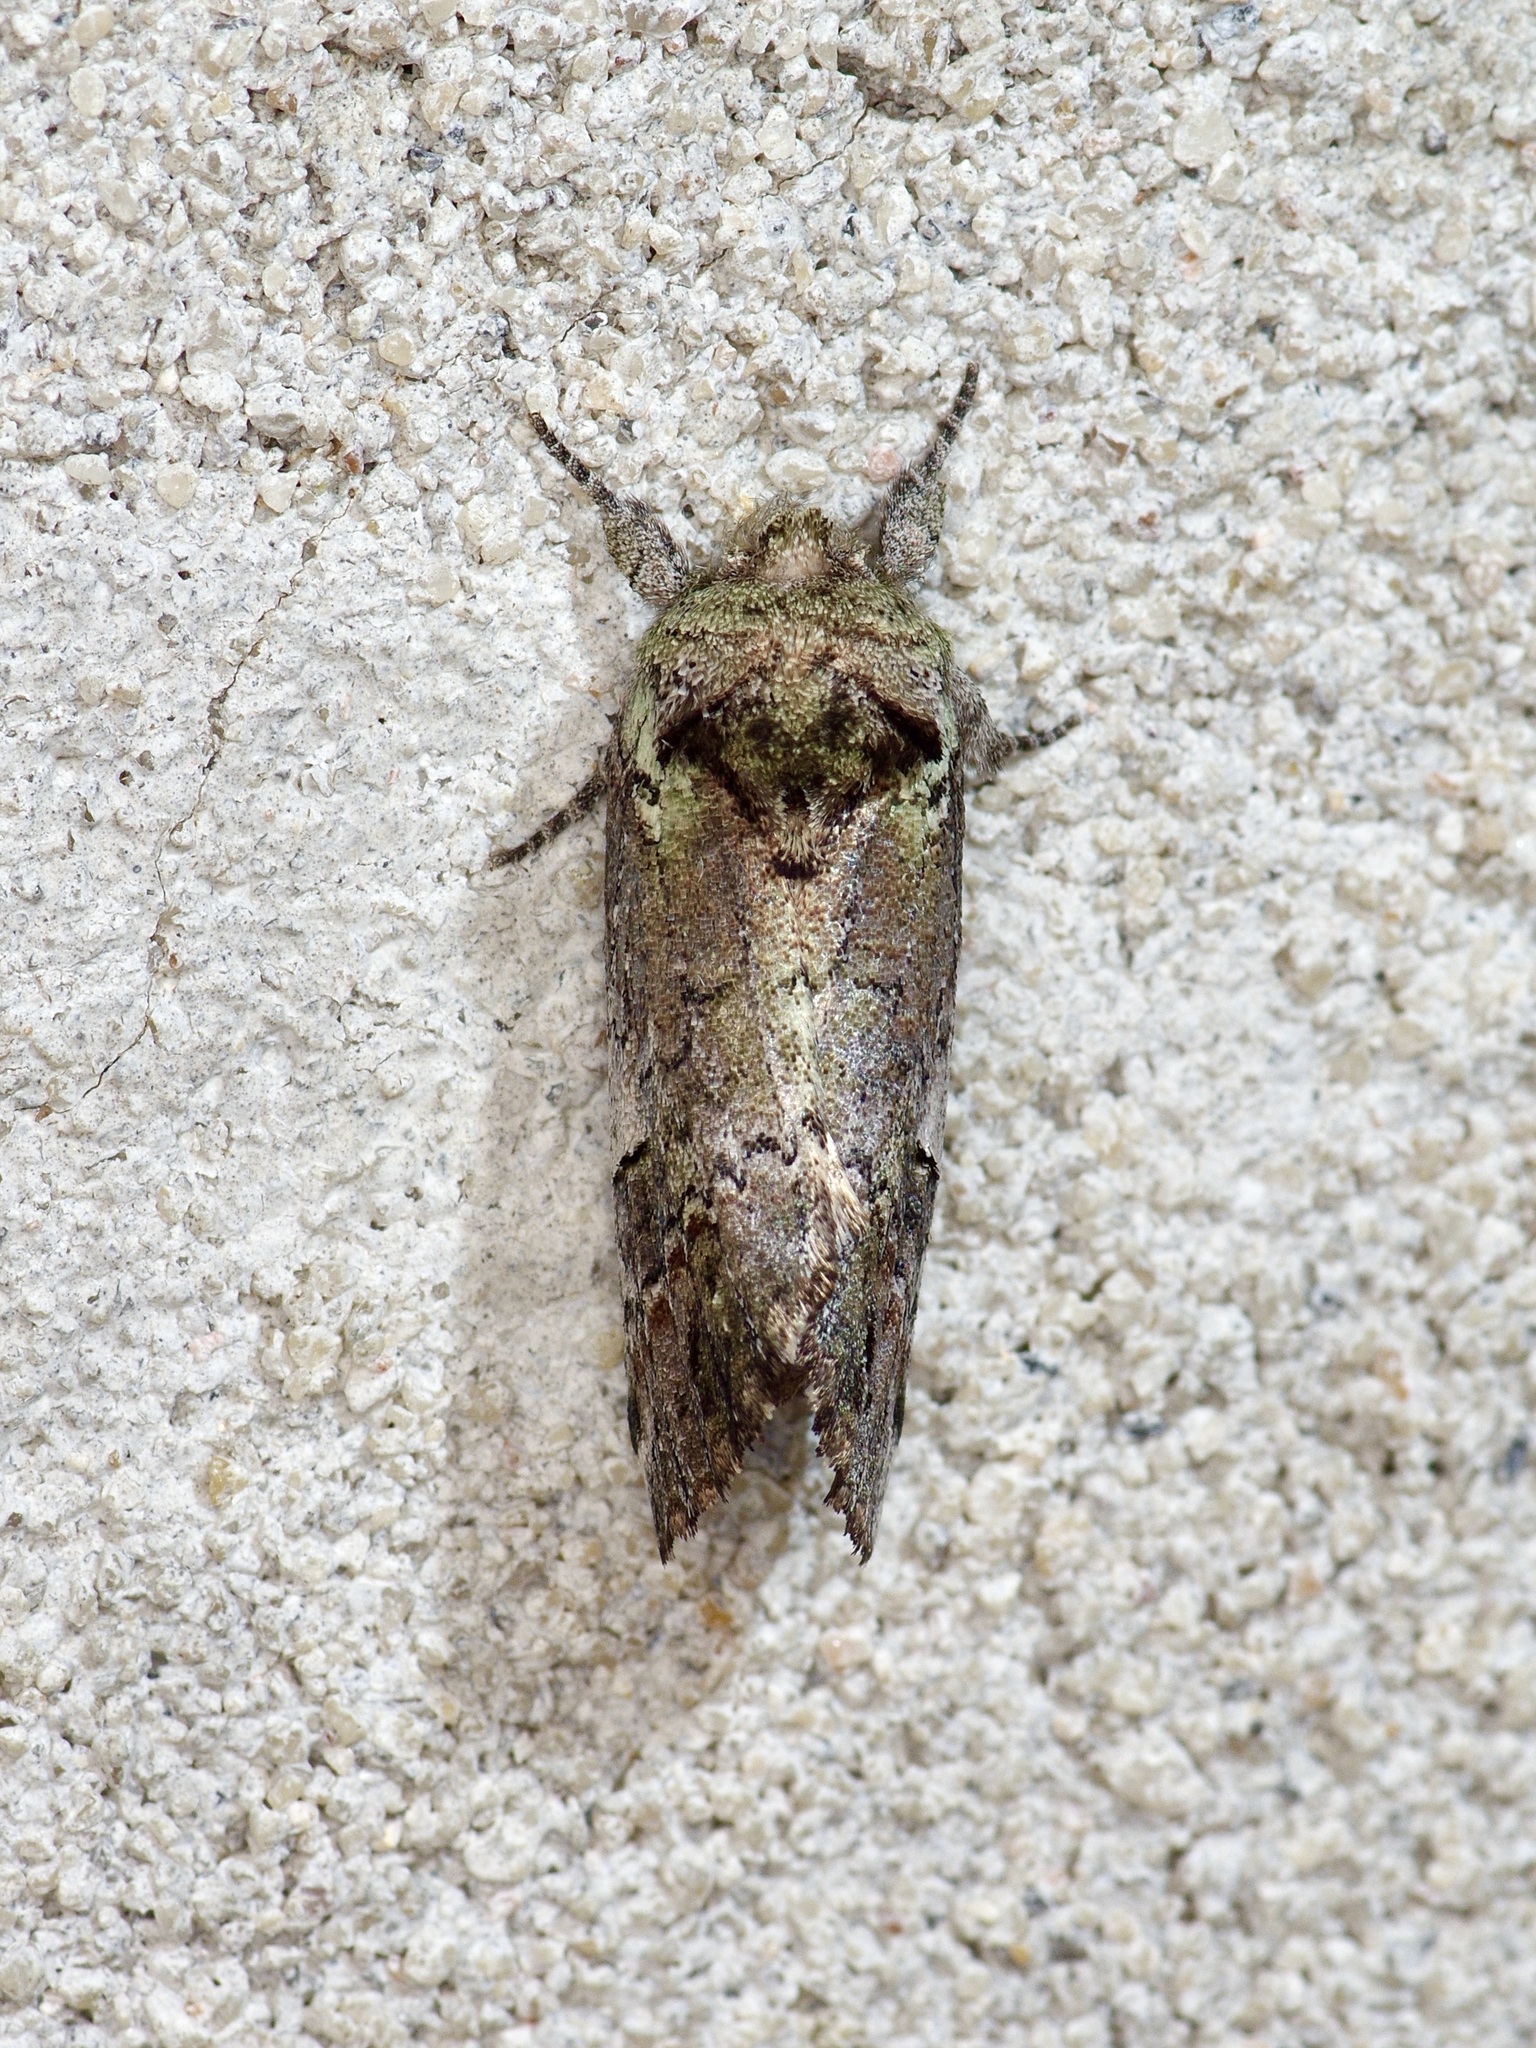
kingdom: Animalia
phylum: Arthropoda
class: Insecta
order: Lepidoptera
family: Notodontidae
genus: Schizura
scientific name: Schizura
